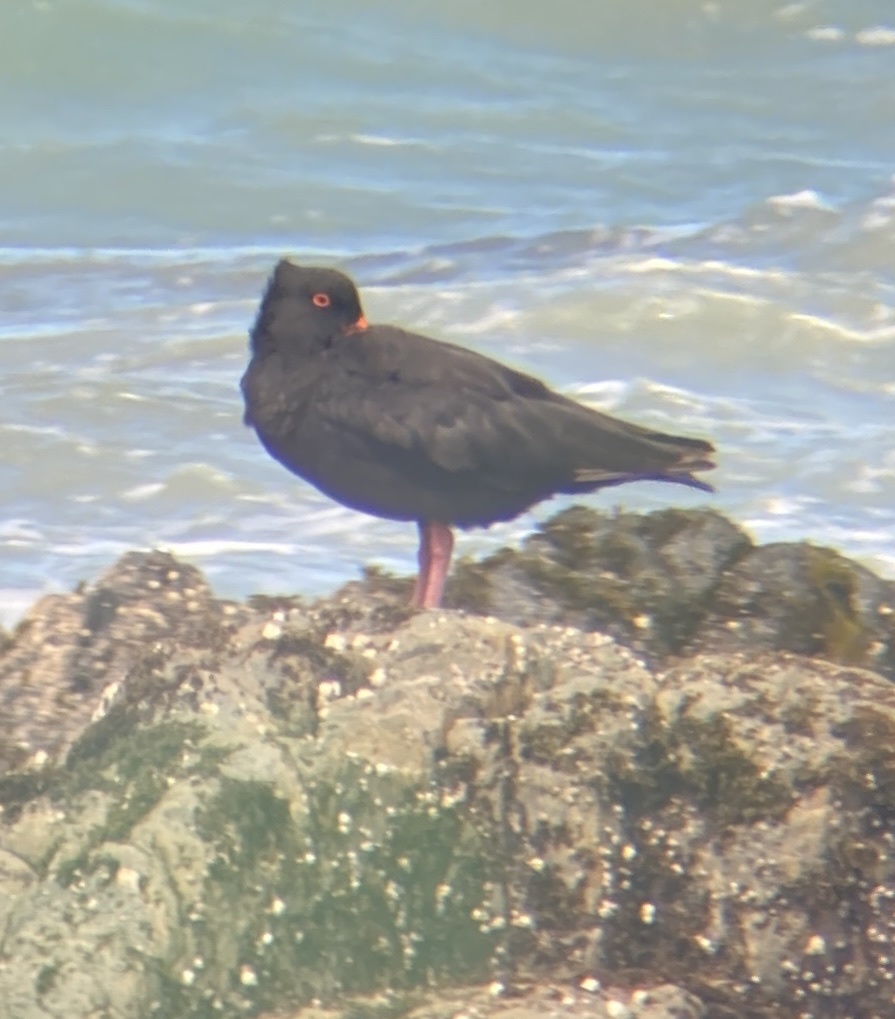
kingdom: Animalia
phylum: Chordata
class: Aves
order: Charadriiformes
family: Haematopodidae
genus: Haematopus
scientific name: Haematopus unicolor
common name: Variable oystercatcher
